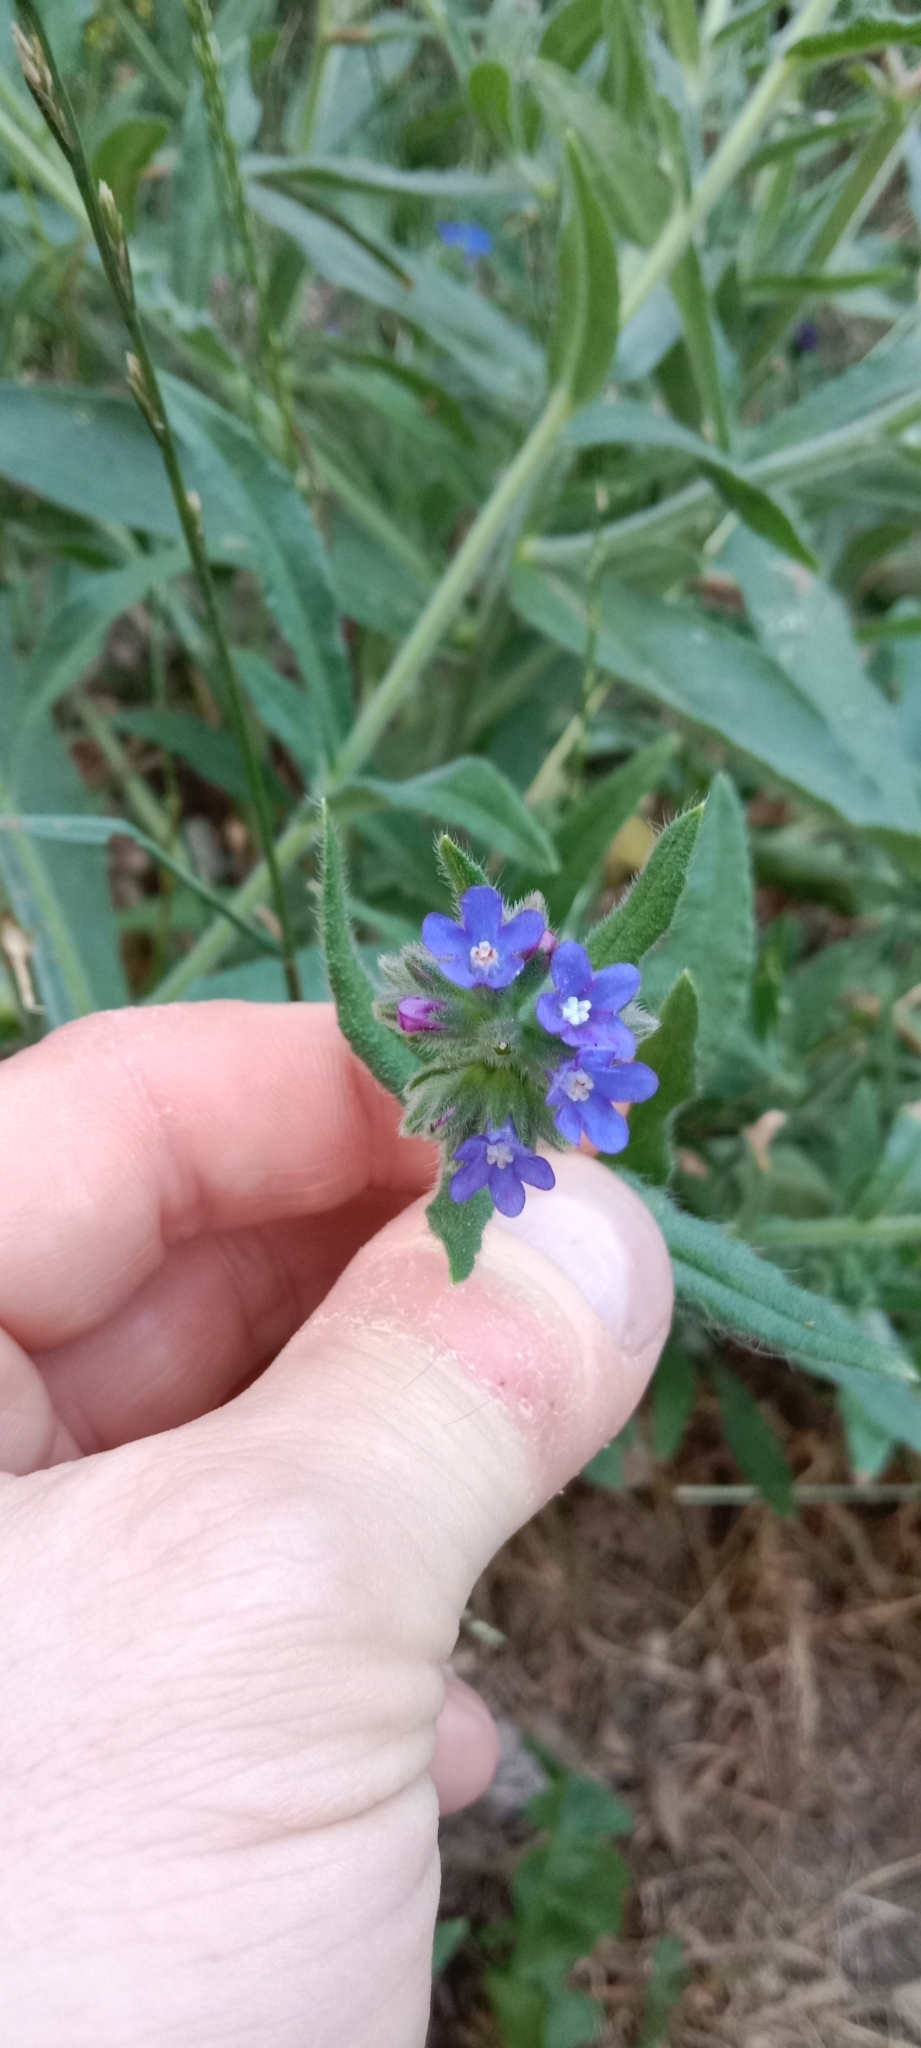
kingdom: Plantae
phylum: Tracheophyta
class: Magnoliopsida
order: Boraginales
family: Boraginaceae
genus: Anchusa
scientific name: Anchusa officinalis
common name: Alkanet
